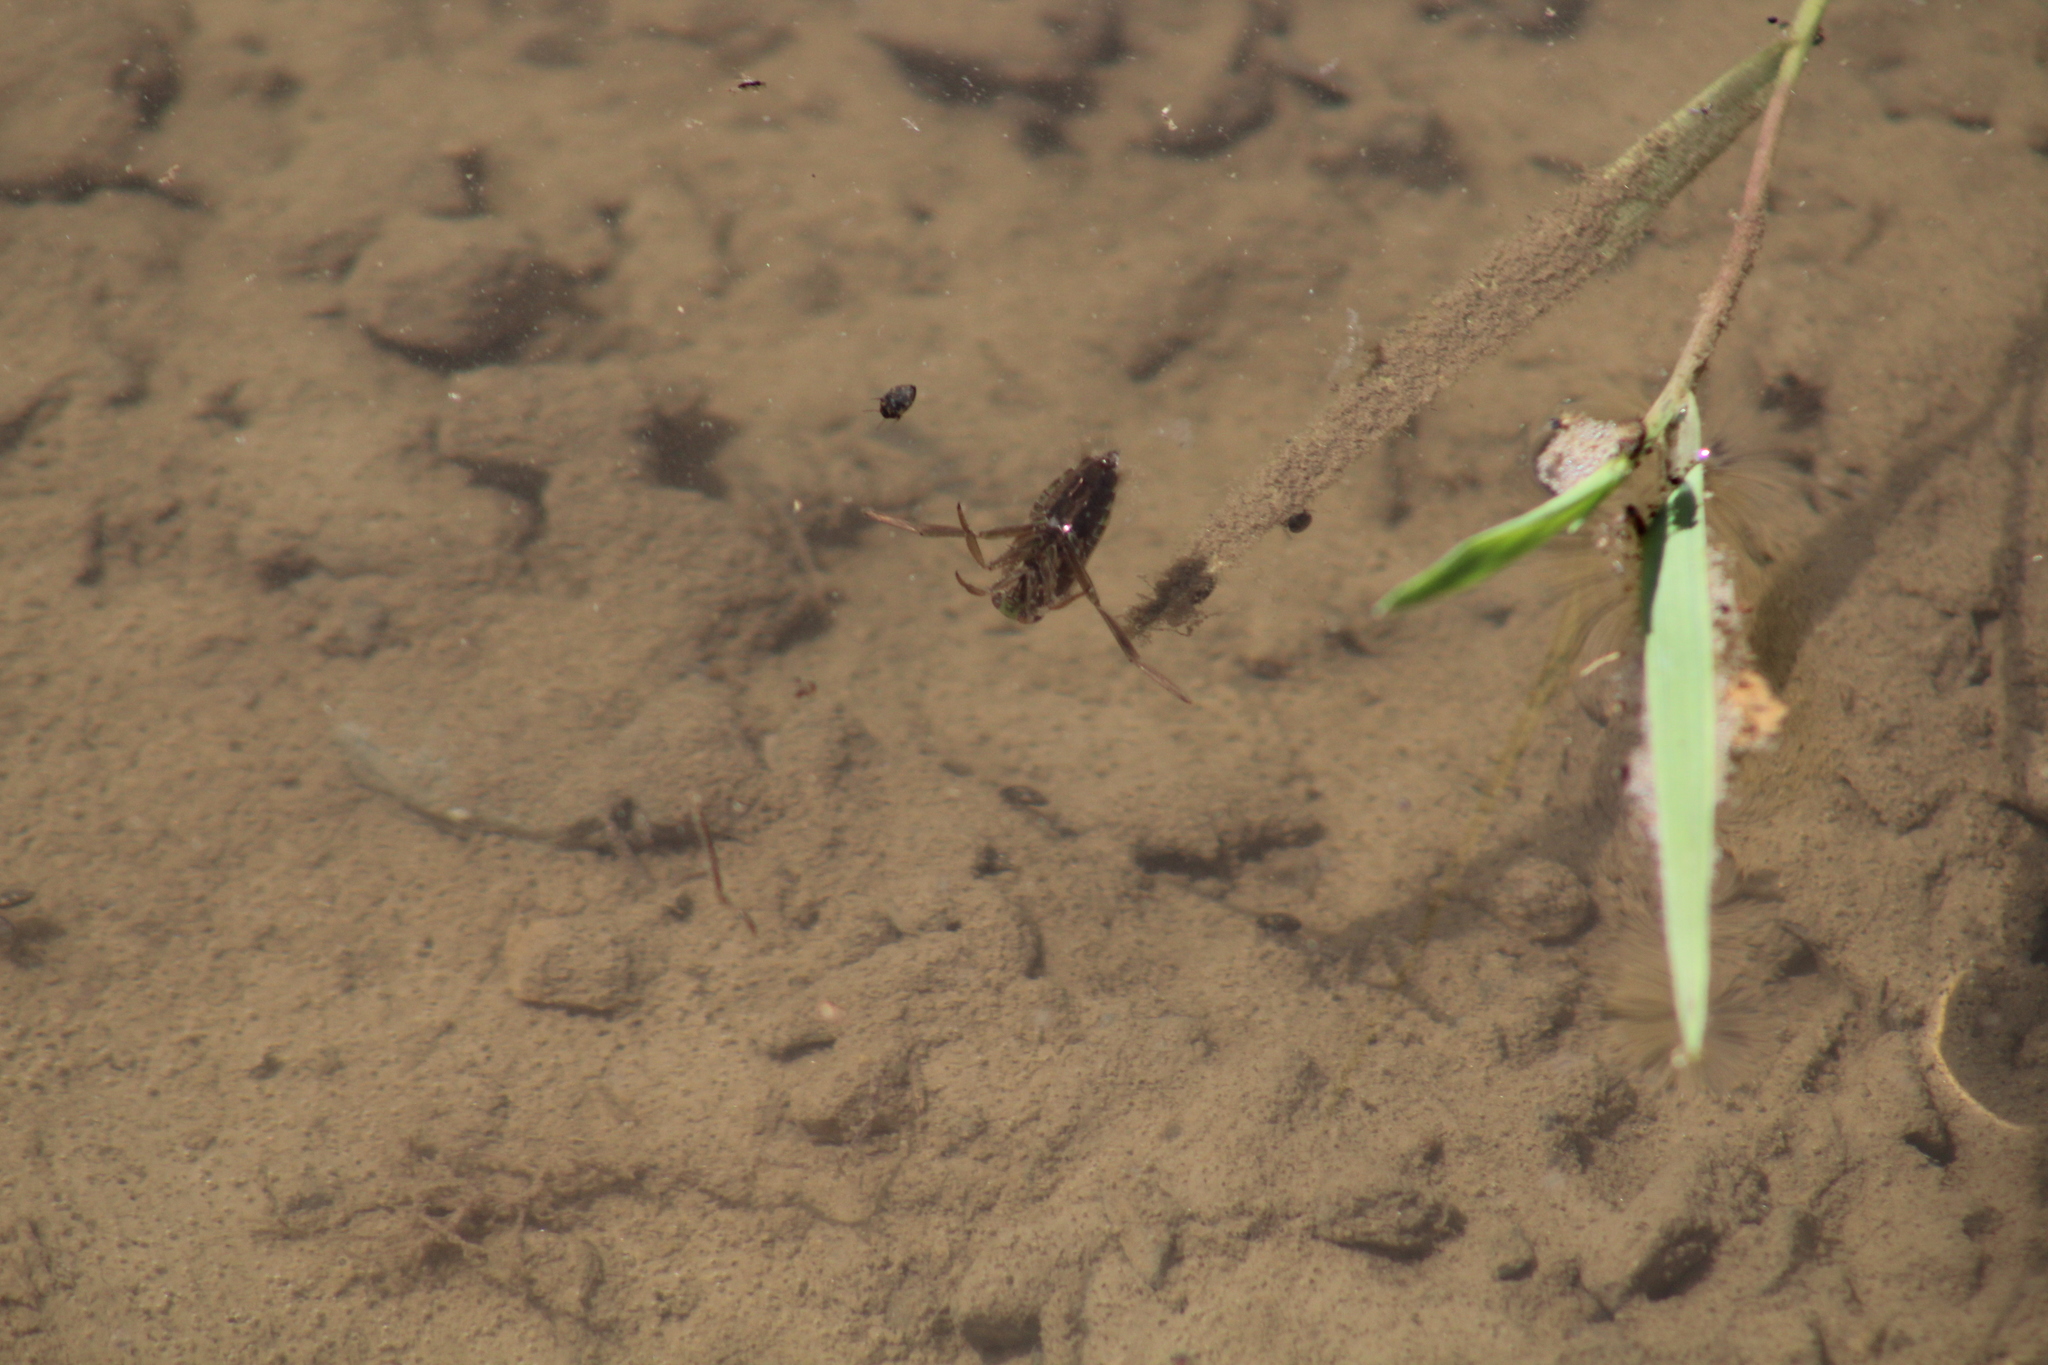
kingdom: Animalia
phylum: Arthropoda
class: Insecta
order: Hemiptera
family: Notonectidae
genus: Notonecta
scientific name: Notonecta
